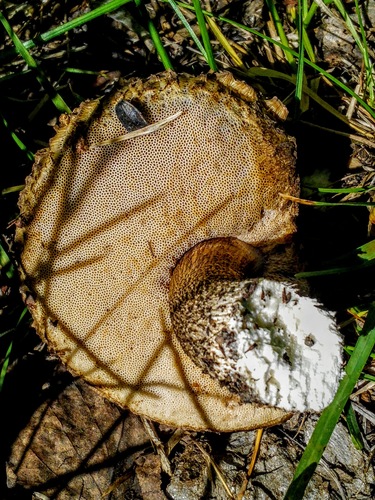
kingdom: Fungi
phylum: Basidiomycota
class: Agaricomycetes
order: Boletales
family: Boletaceae
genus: Leccinum
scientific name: Leccinum scabrum
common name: Blushing bolete
